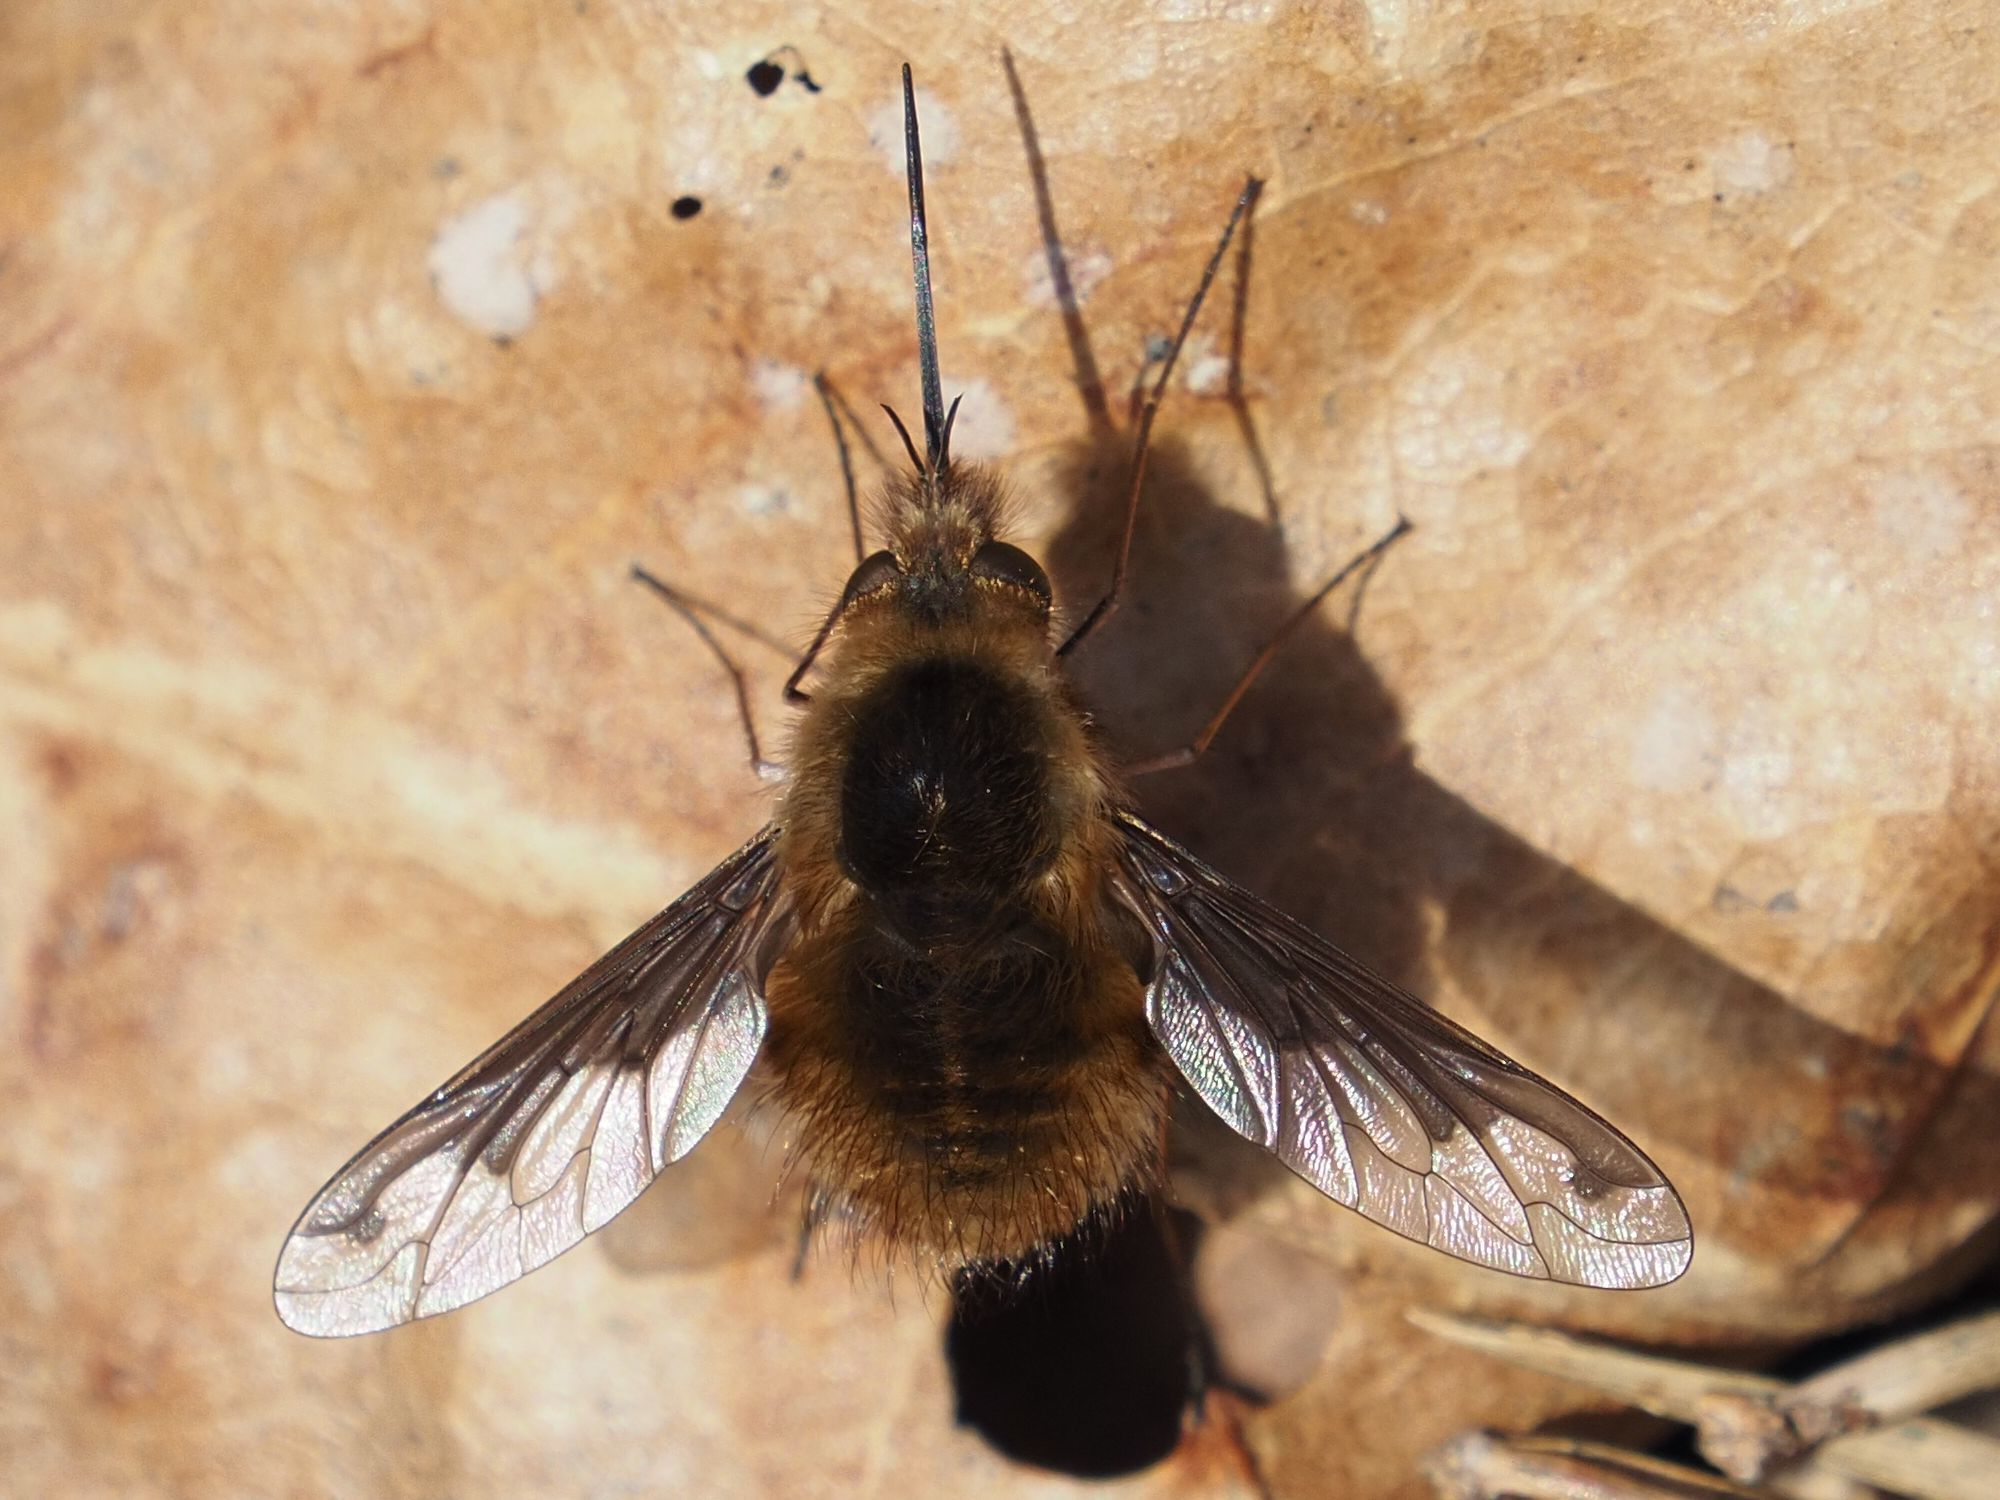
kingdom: Animalia
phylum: Arthropoda
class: Insecta
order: Diptera
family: Bombyliidae
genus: Bombylius
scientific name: Bombylius major
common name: Bee fly
